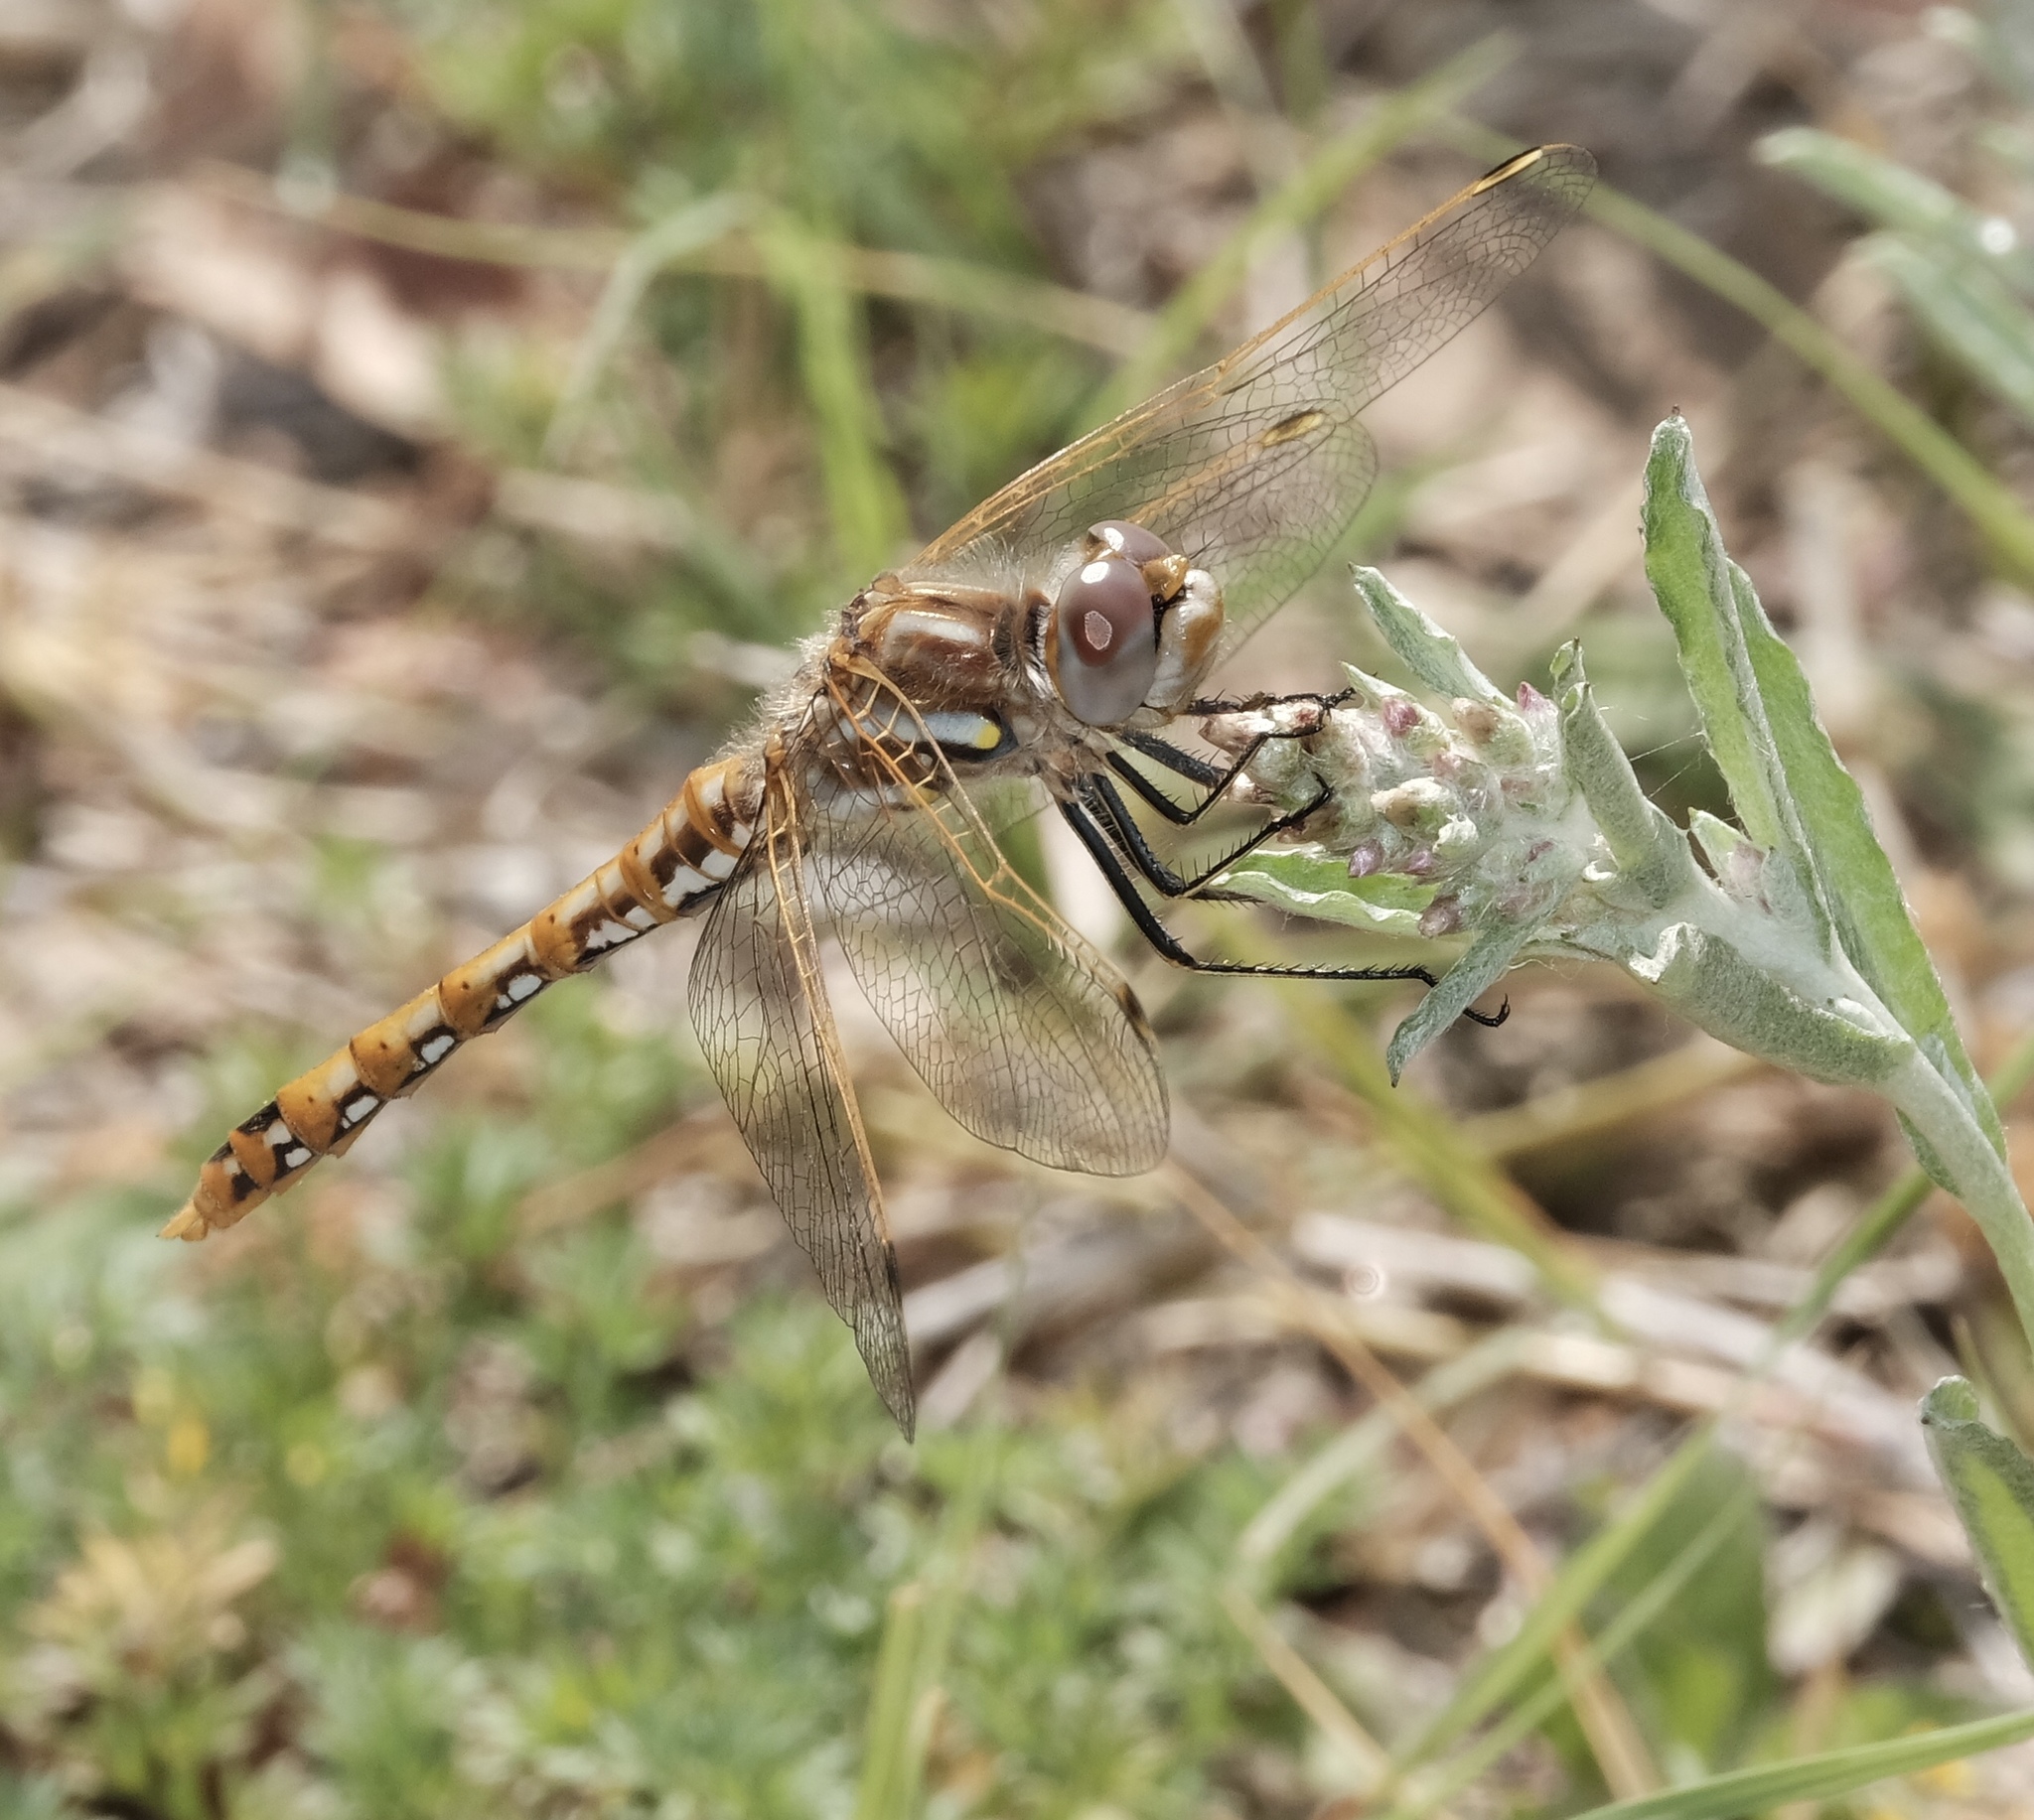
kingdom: Animalia
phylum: Arthropoda
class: Insecta
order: Odonata
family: Libellulidae
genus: Sympetrum
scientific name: Sympetrum corruptum
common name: Variegated meadowhawk
